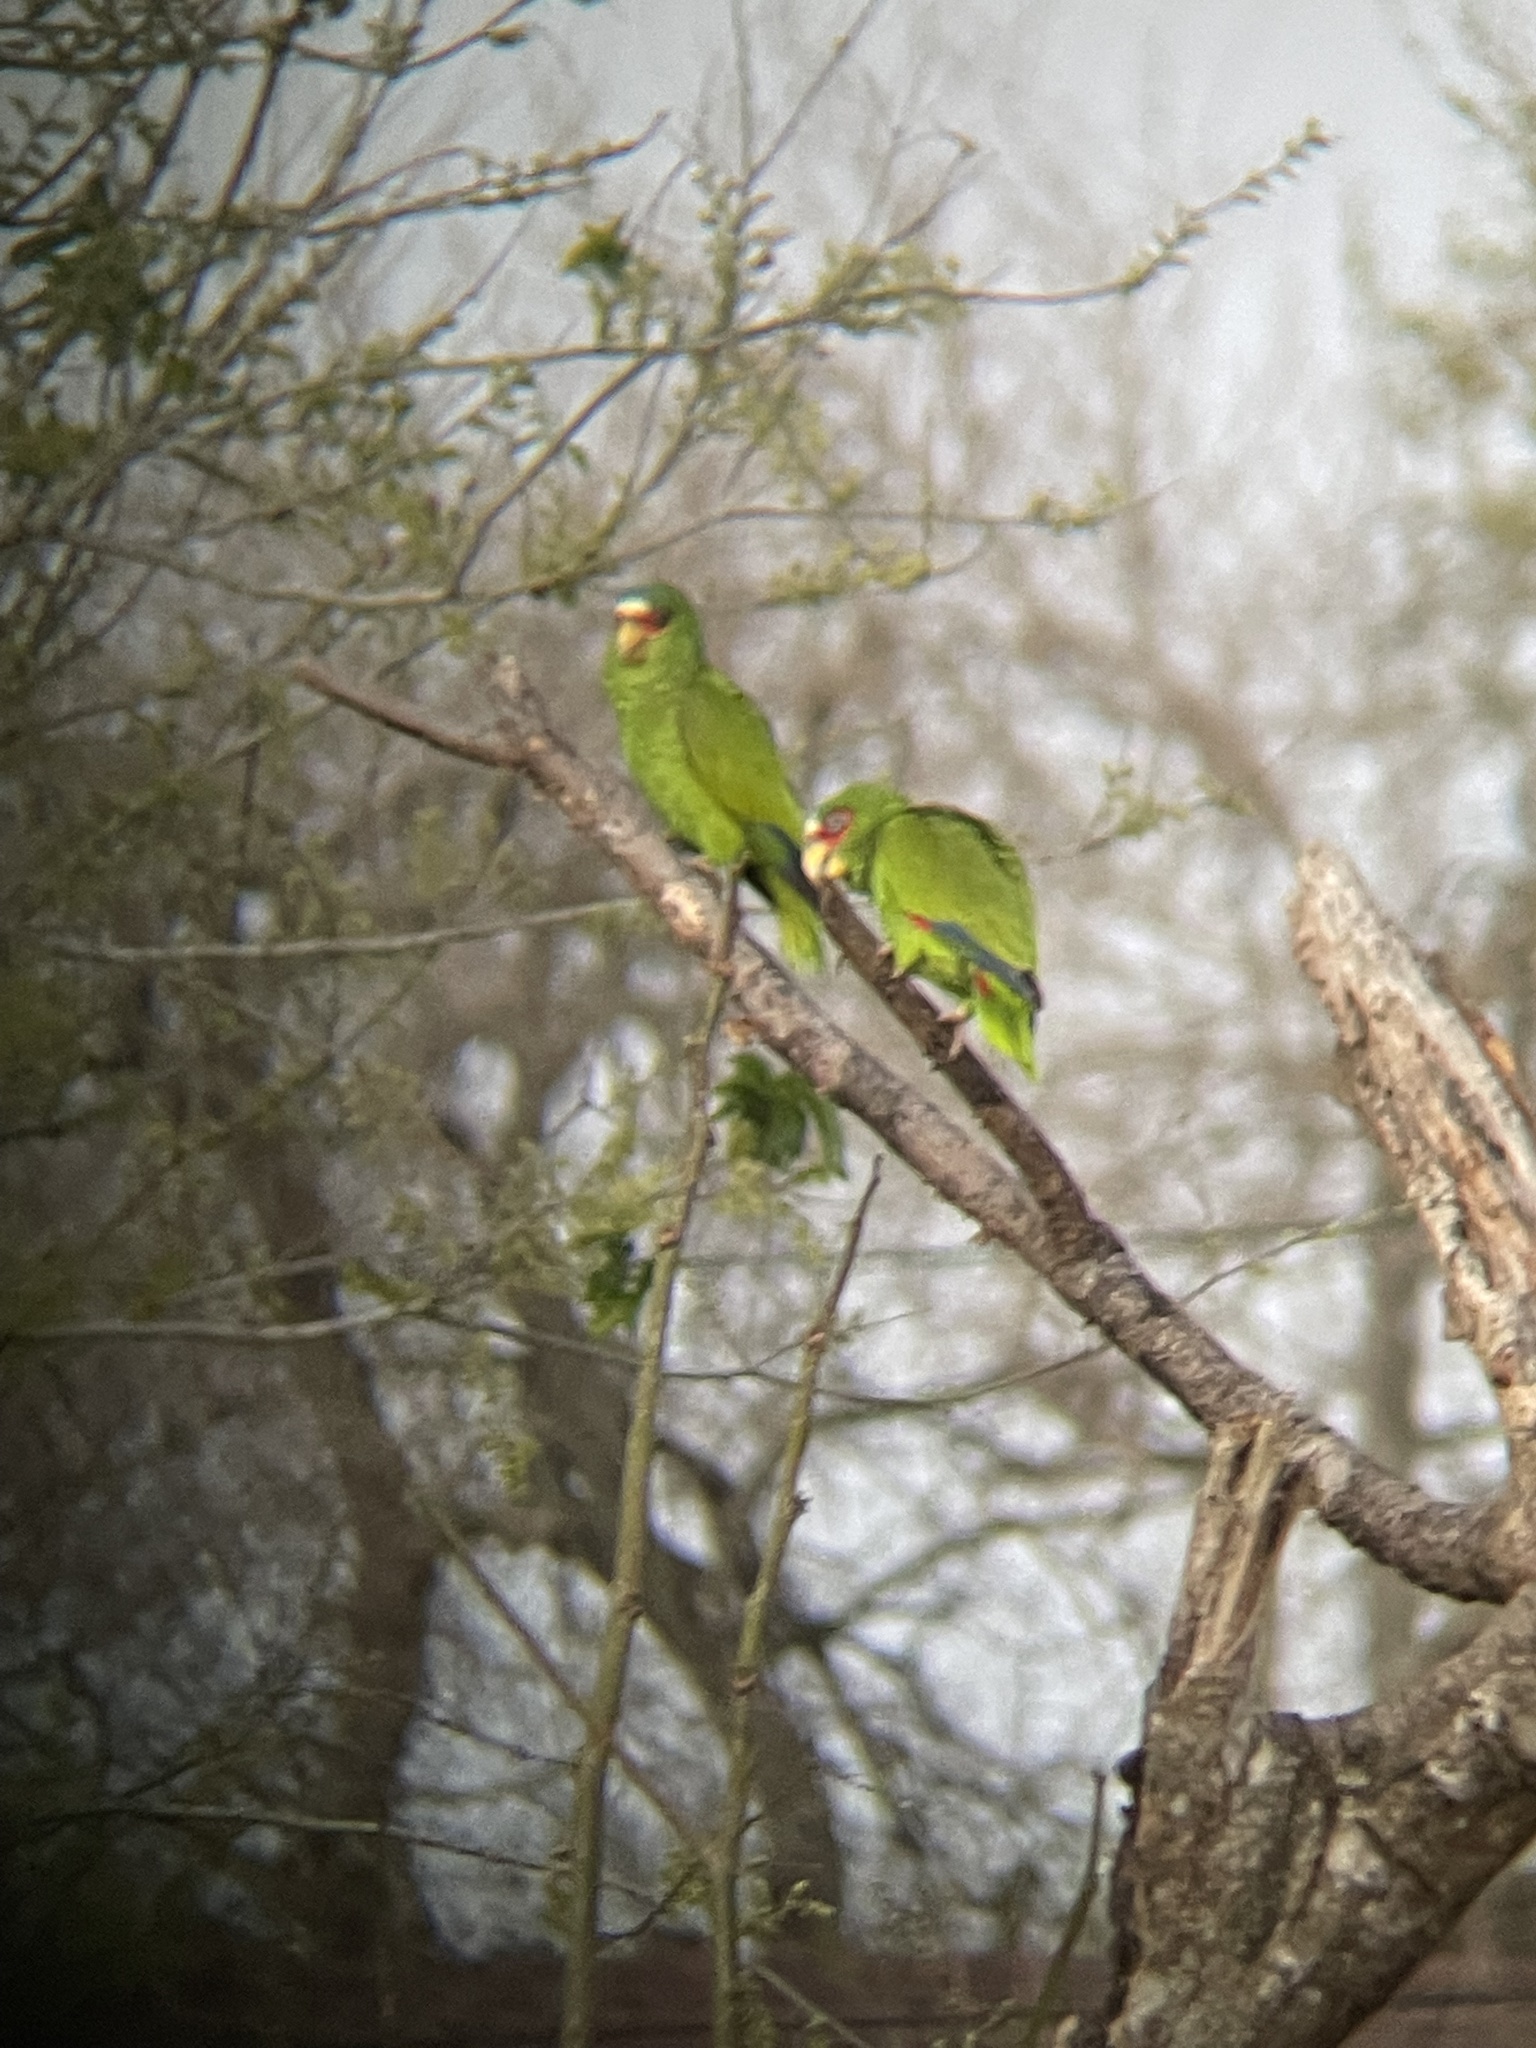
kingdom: Animalia
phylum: Chordata
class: Aves
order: Psittaciformes
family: Psittacidae
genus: Amazona
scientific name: Amazona albifrons
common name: White-fronted amazon
